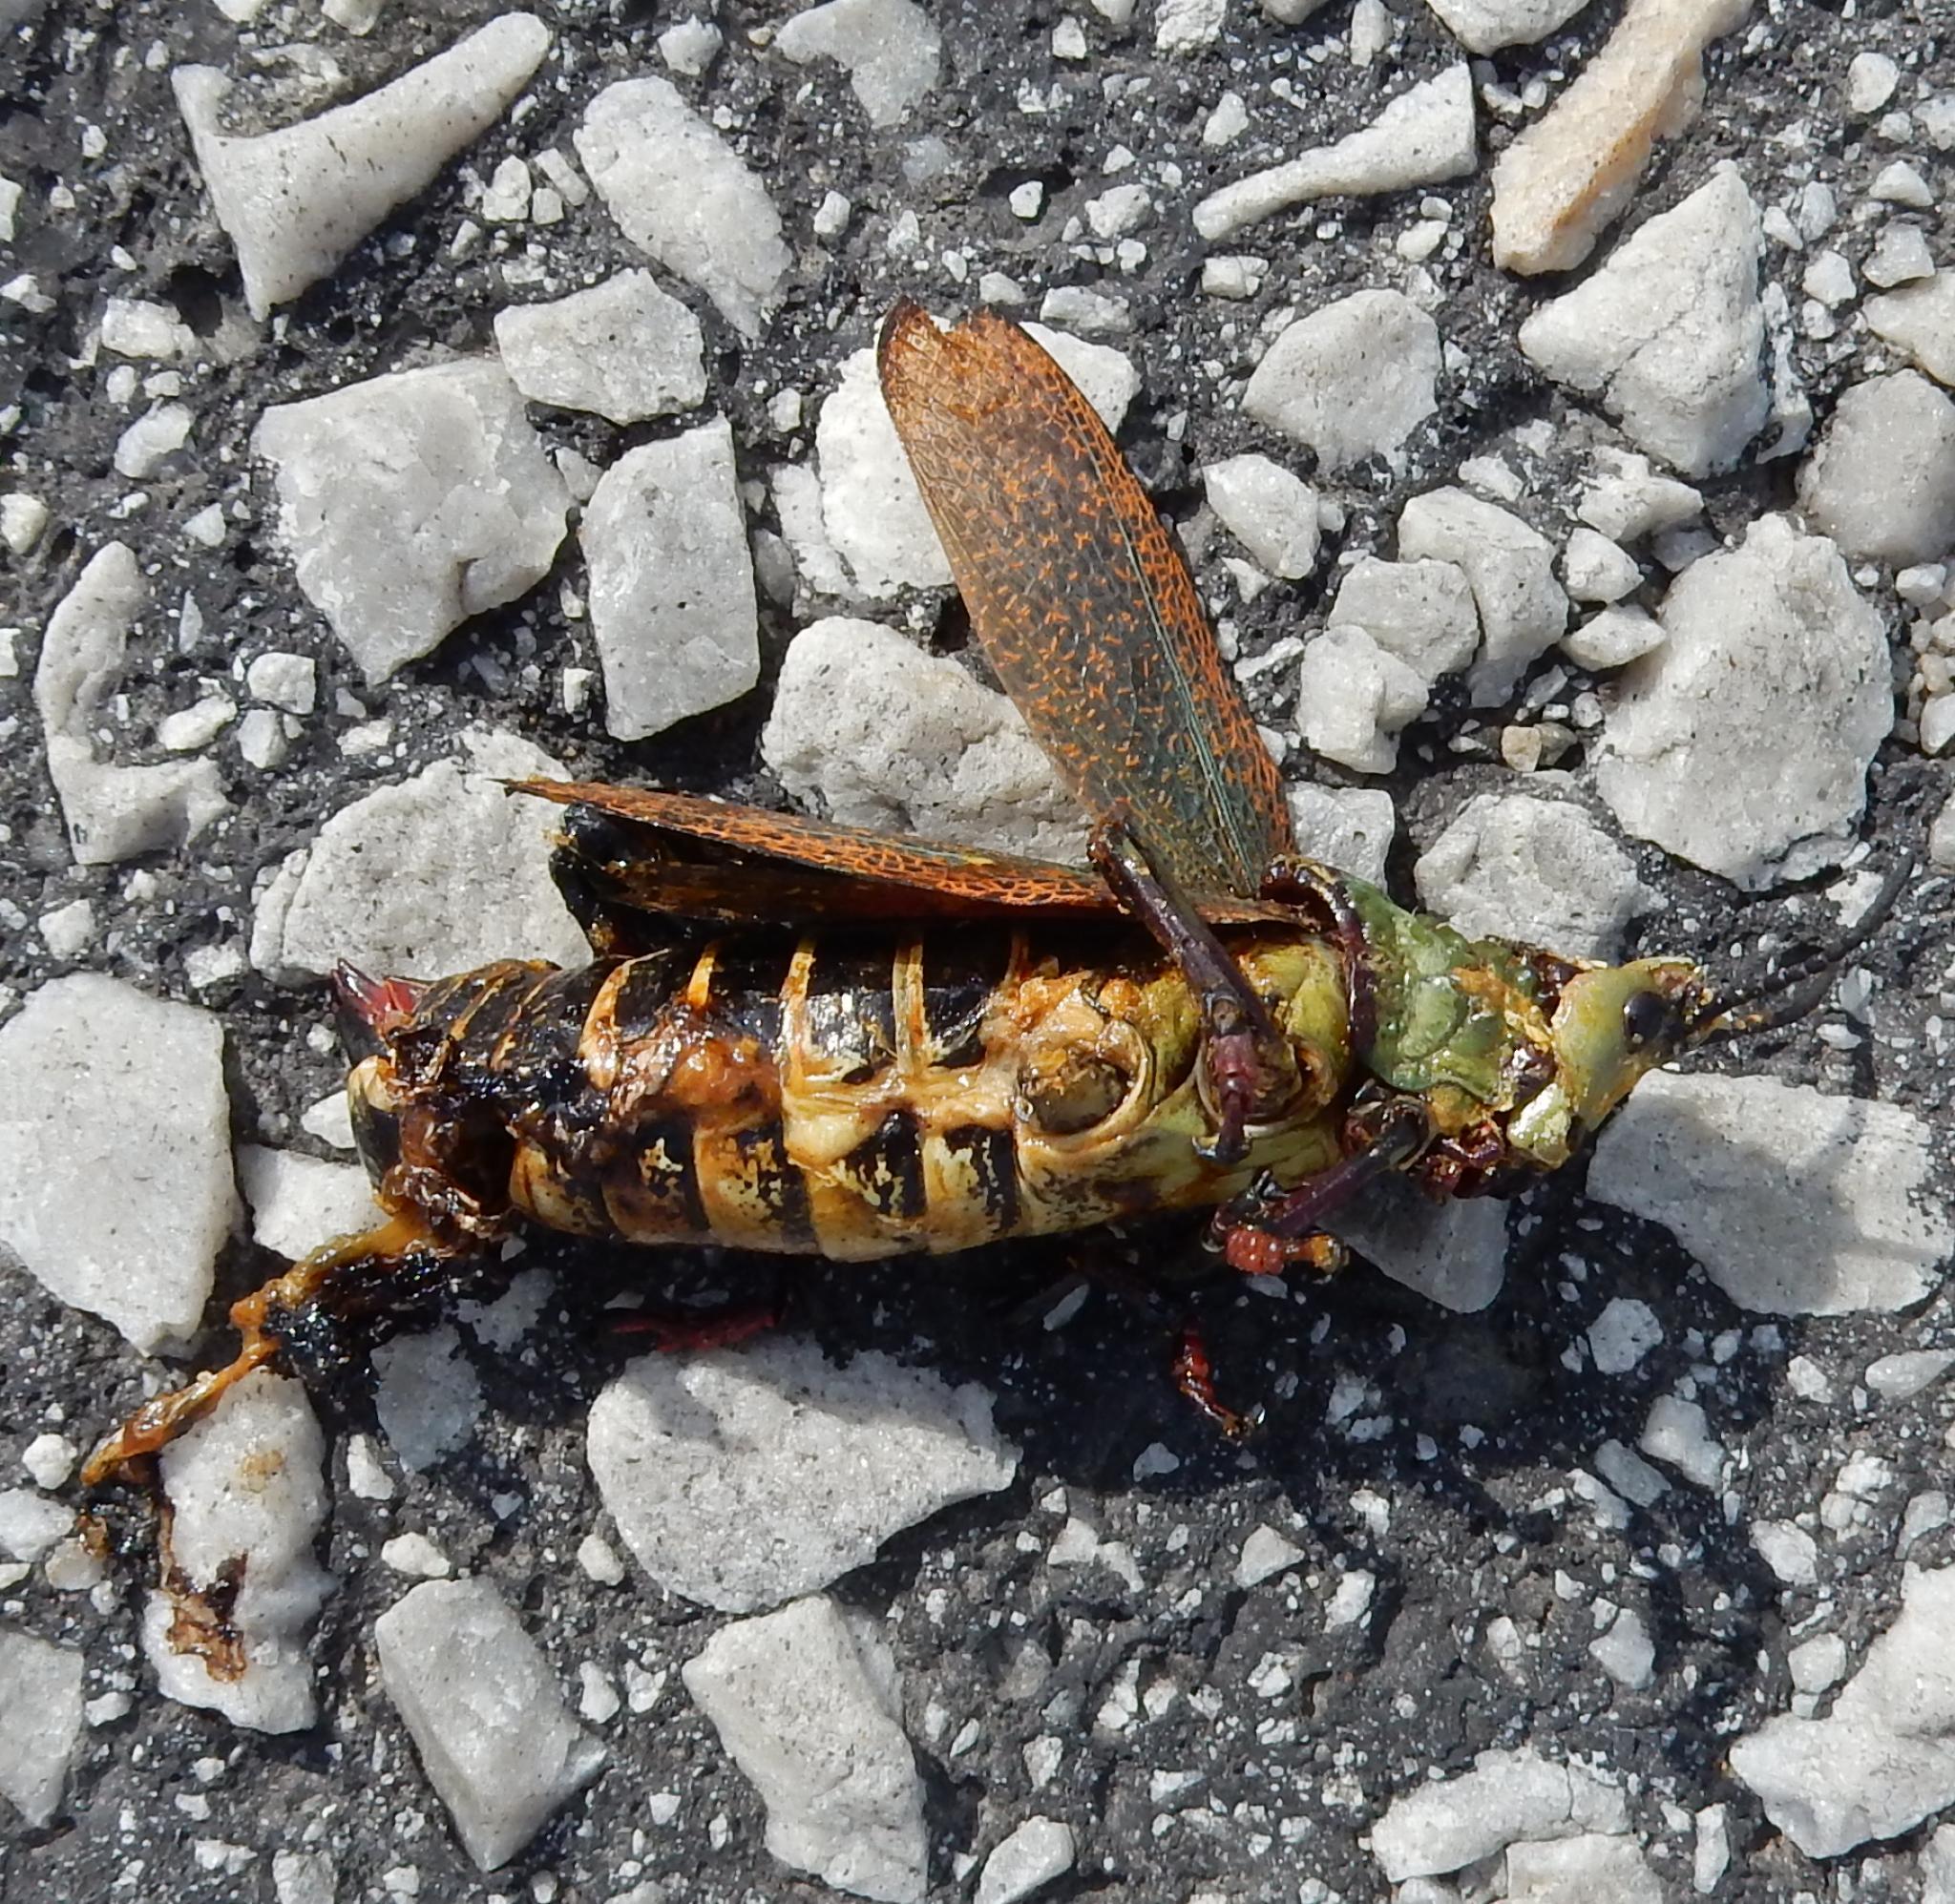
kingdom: Animalia
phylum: Arthropoda
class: Insecta
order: Orthoptera
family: Pyrgomorphidae
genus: Dictyophorus
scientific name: Dictyophorus spumans
